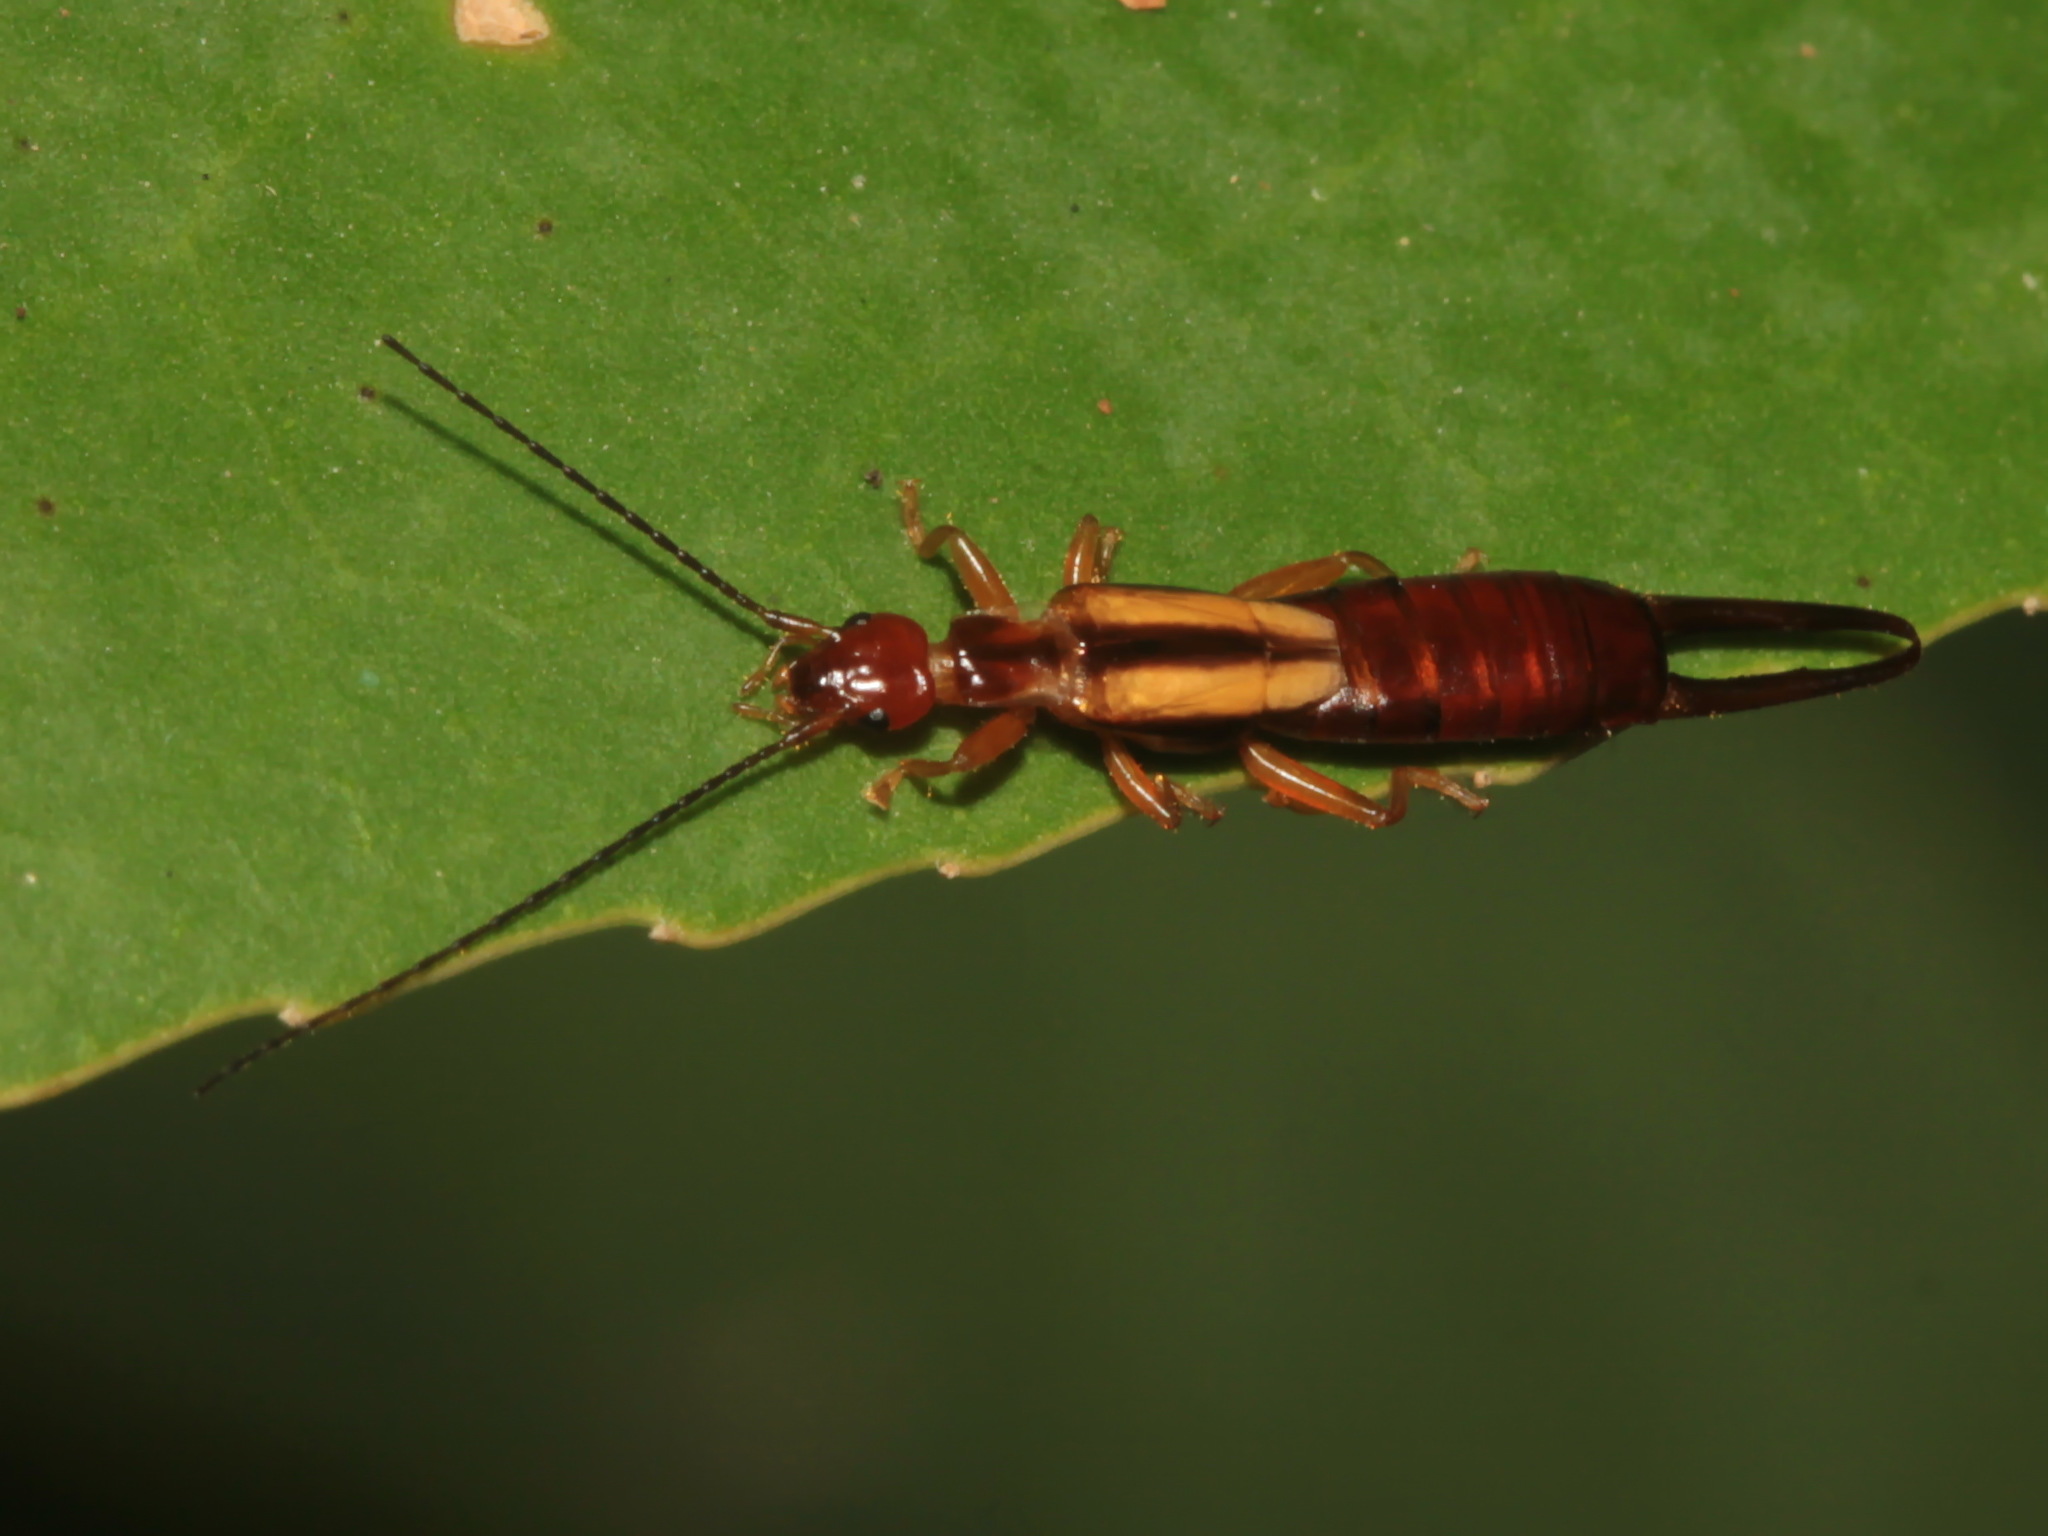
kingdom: Animalia
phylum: Arthropoda
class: Insecta
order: Dermaptera
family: Chelisochidae
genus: Proreus
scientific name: Proreus simulans
